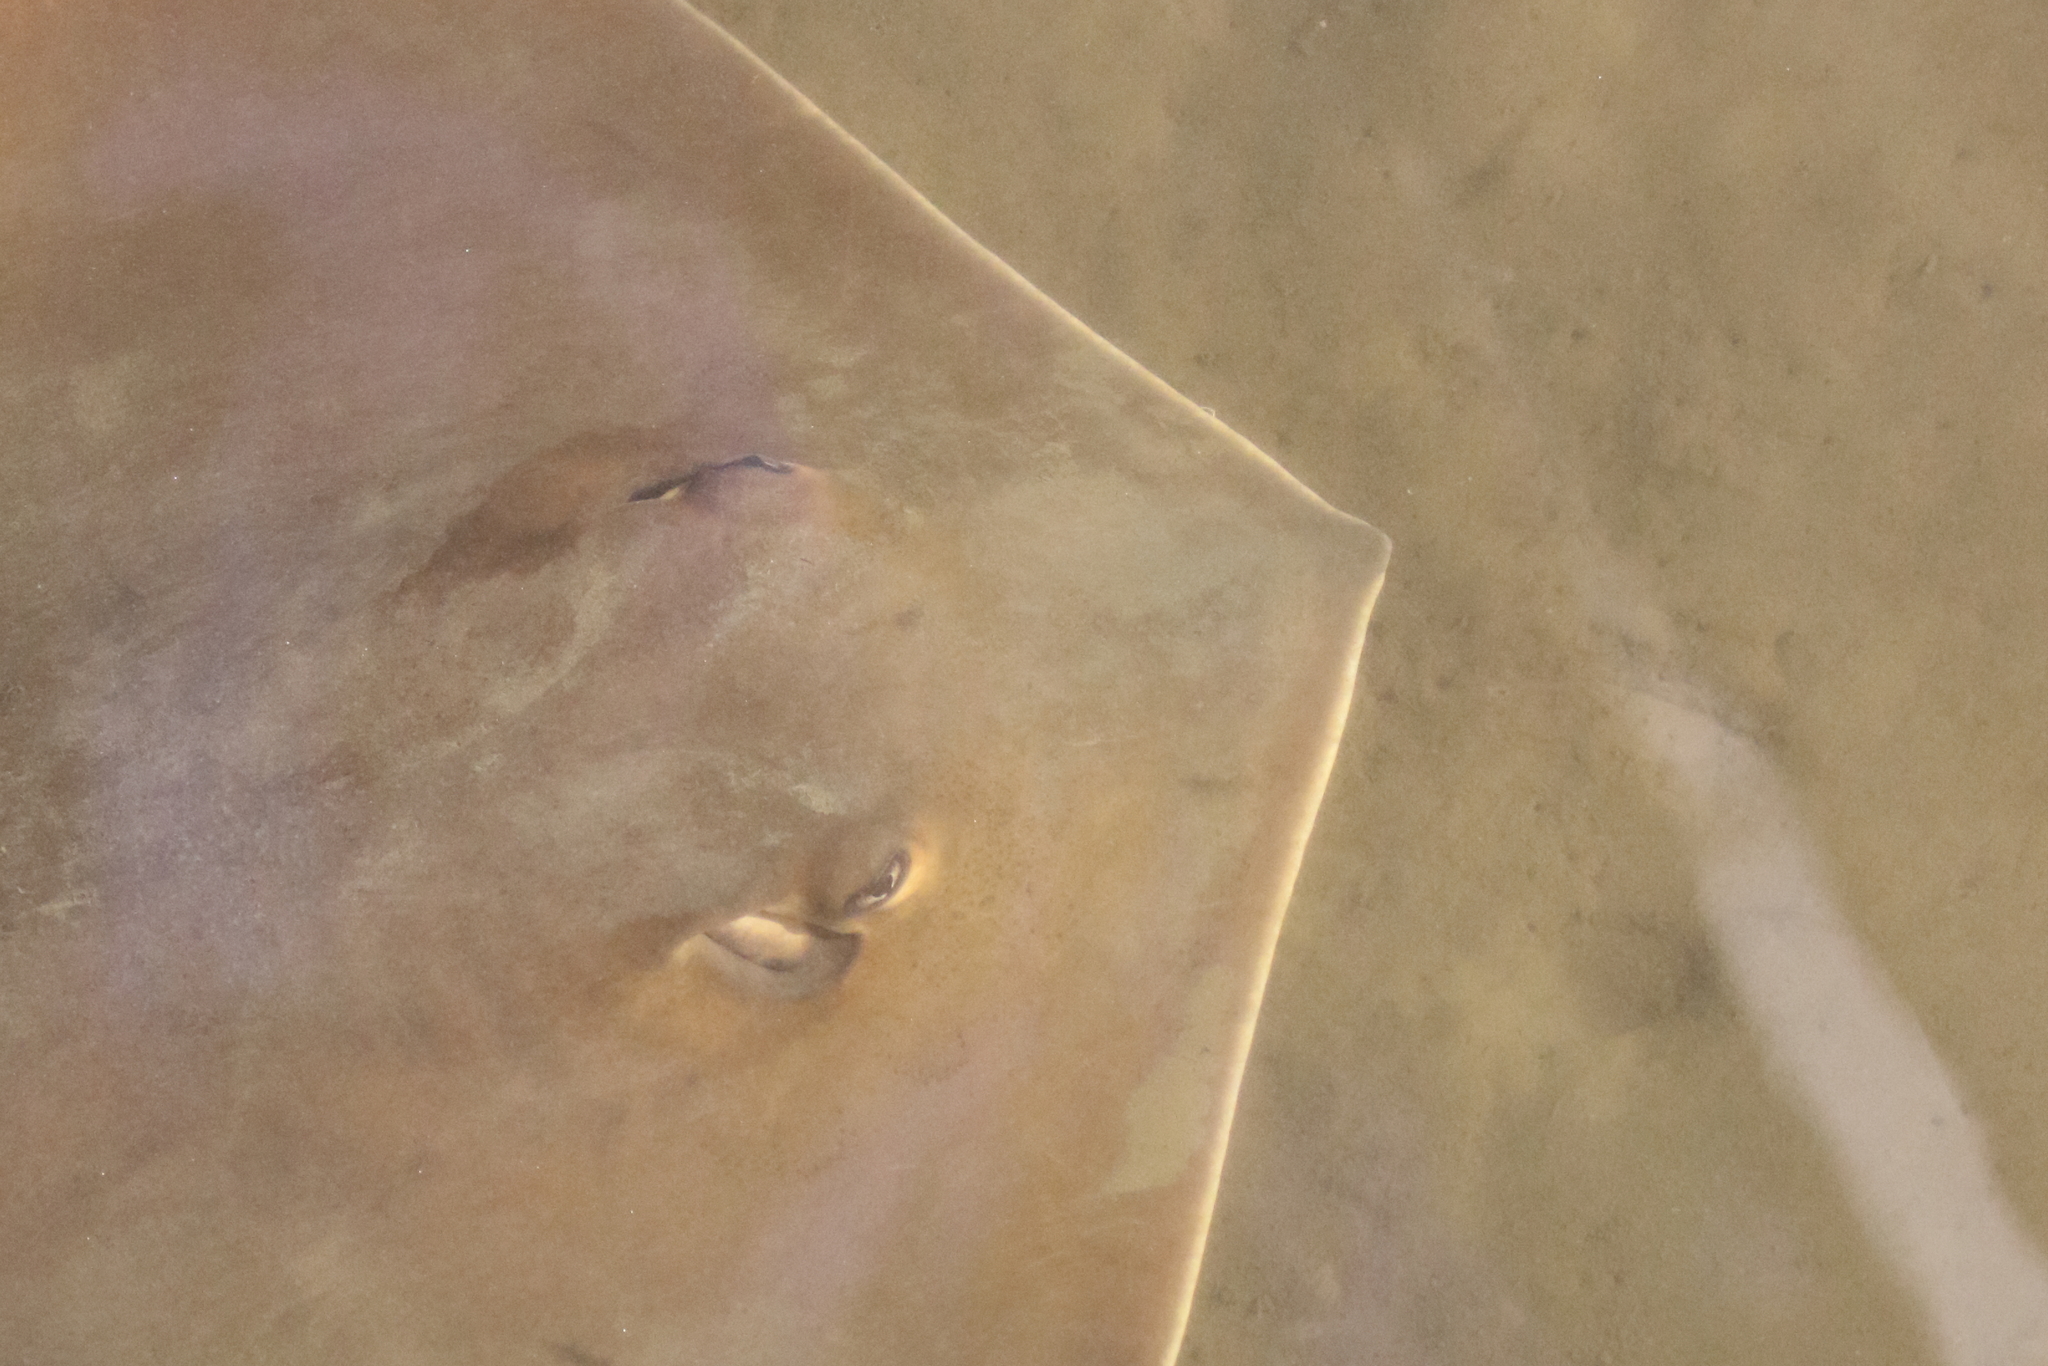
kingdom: Animalia
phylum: Chordata
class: Elasmobranchii
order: Myliobatiformes
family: Dasyatidae
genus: Hemitrygon
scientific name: Hemitrygon fluviorum
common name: Estuary stingray
